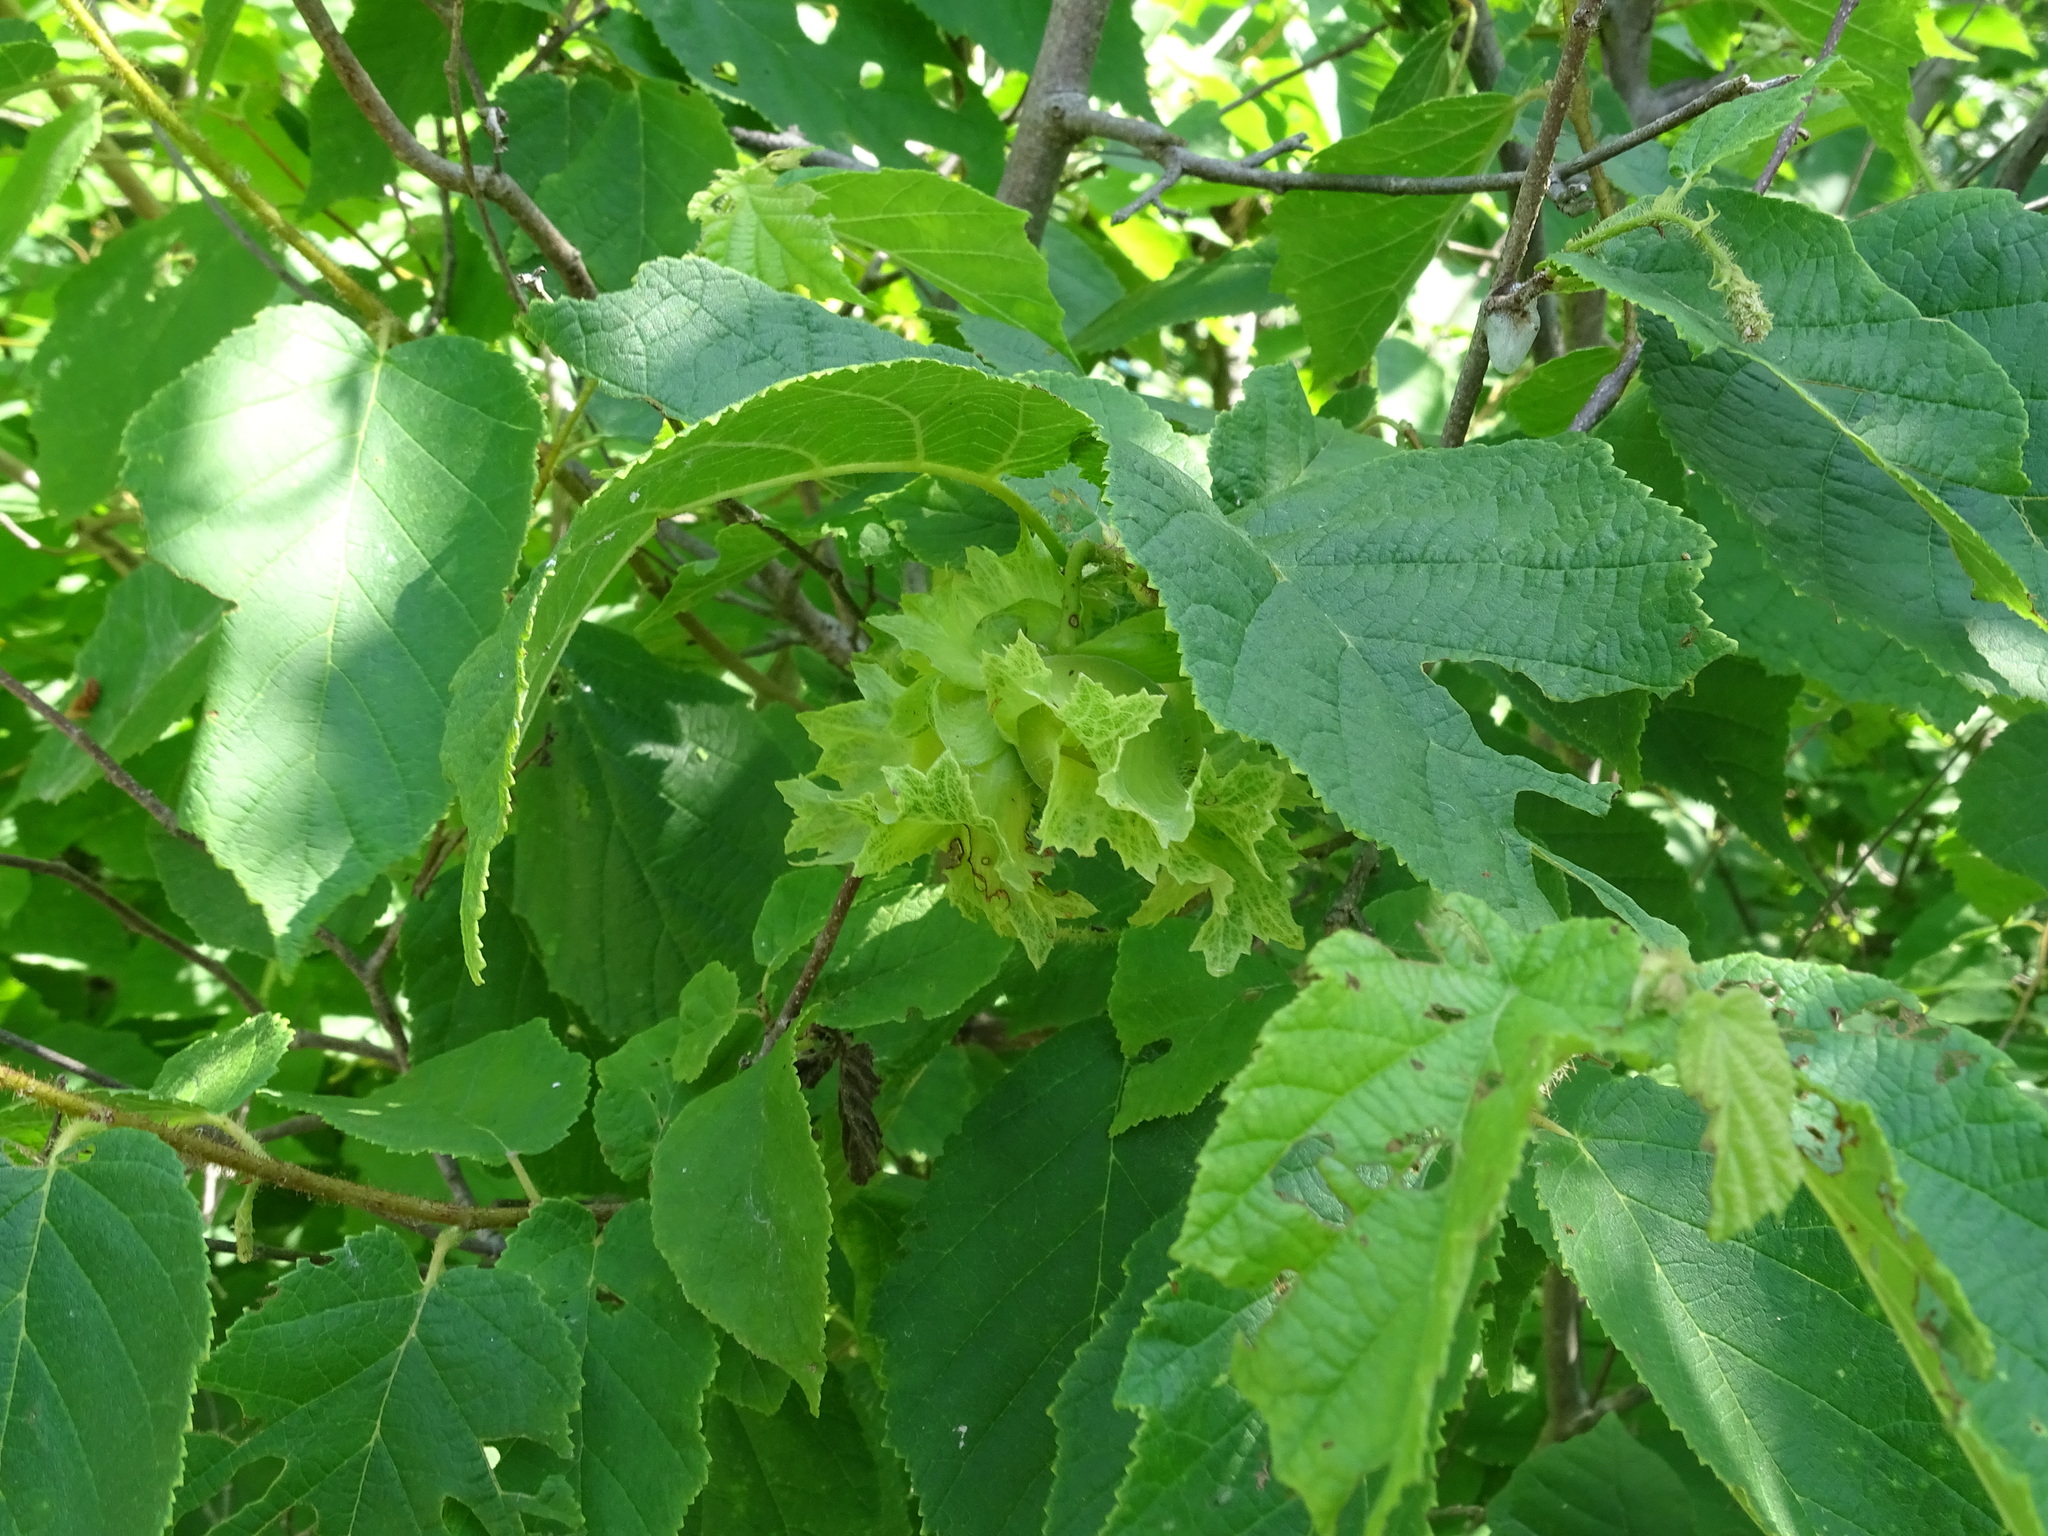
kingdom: Plantae
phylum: Tracheophyta
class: Magnoliopsida
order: Fagales
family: Betulaceae
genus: Corylus
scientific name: Corylus americana
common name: American hazel
